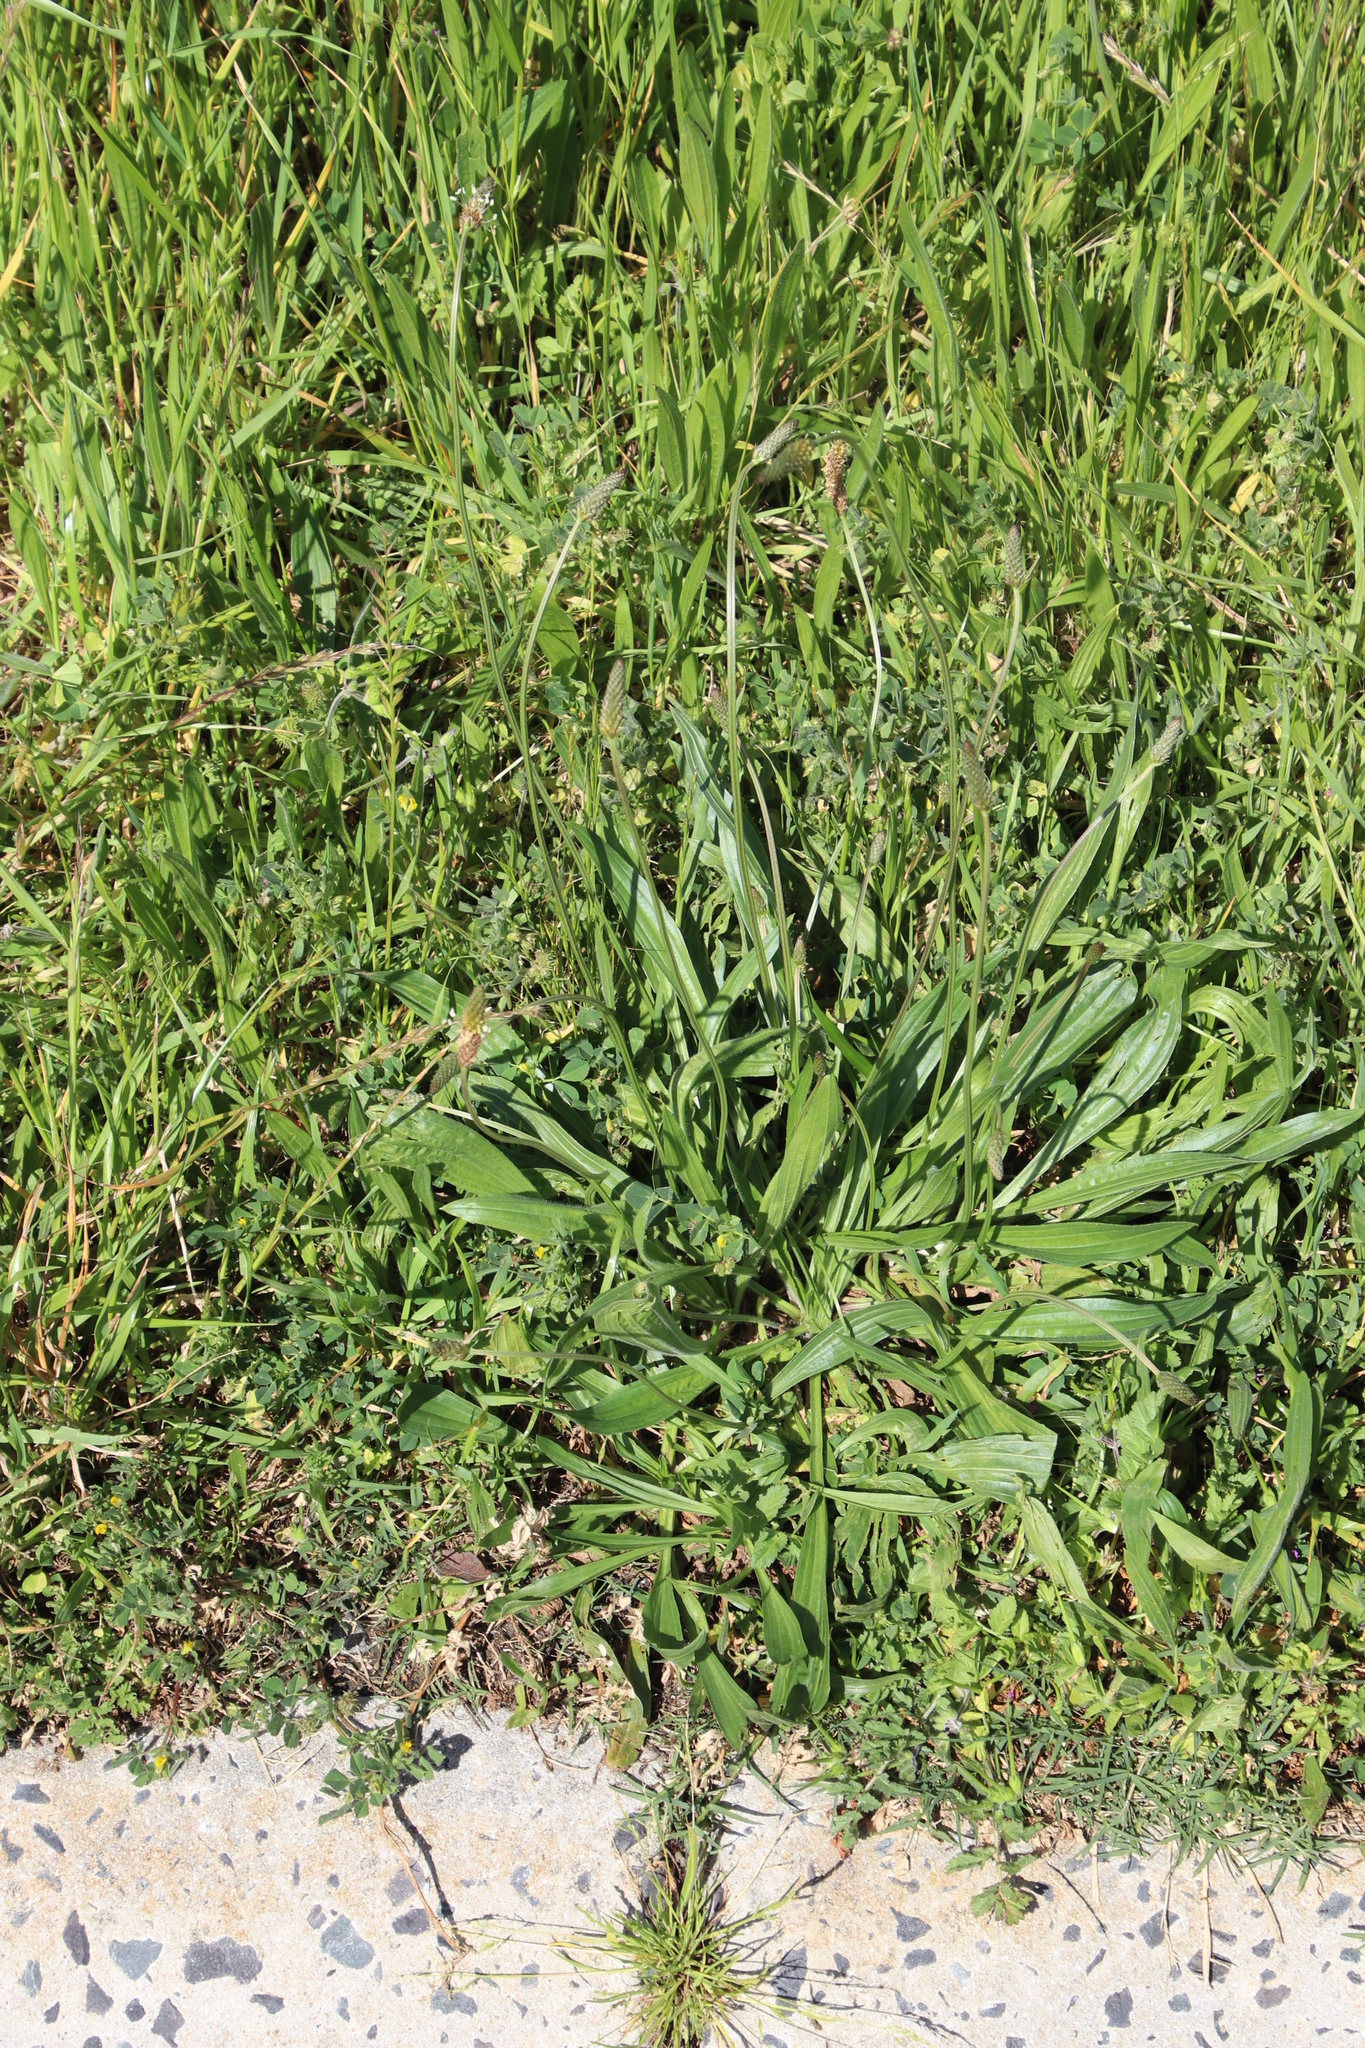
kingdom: Plantae
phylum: Tracheophyta
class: Magnoliopsida
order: Lamiales
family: Plantaginaceae
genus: Plantago
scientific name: Plantago lanceolata
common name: Ribwort plantain
